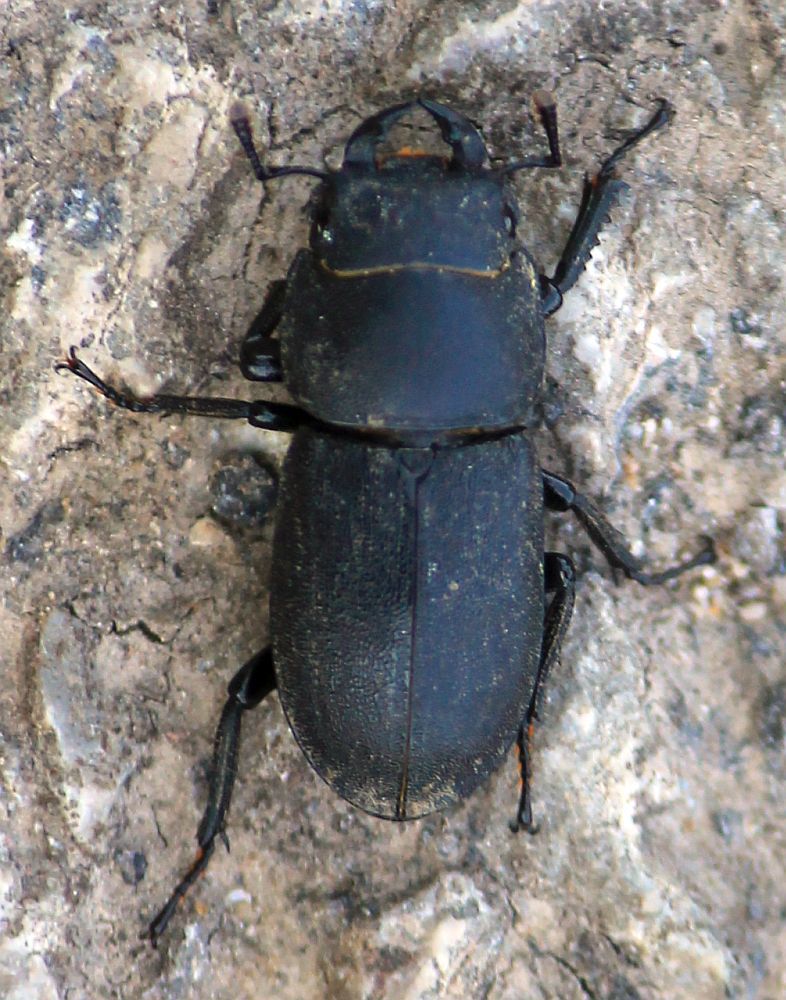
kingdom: Animalia
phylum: Arthropoda
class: Insecta
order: Coleoptera
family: Lucanidae
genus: Dorcus
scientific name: Dorcus parallelipipedus
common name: Lesser stag beetle
